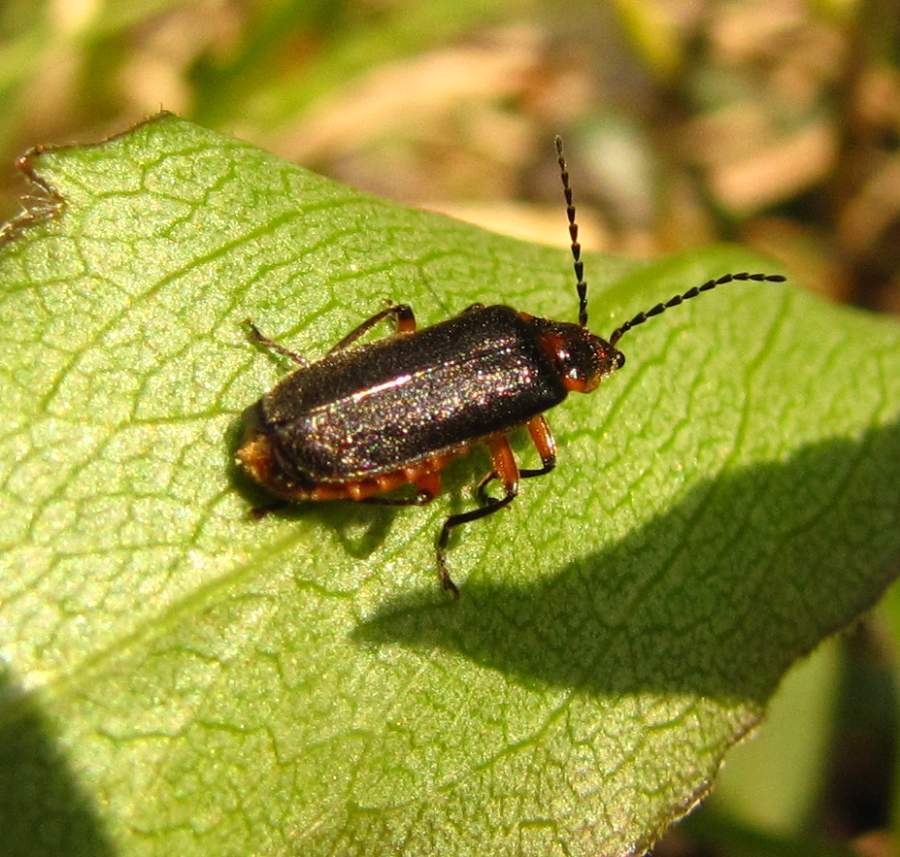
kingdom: Animalia
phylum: Arthropoda
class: Insecta
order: Coleoptera
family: Cantharidae
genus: Atalantycha
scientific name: Atalantycha bilineata
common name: Two-lined leatherwing
